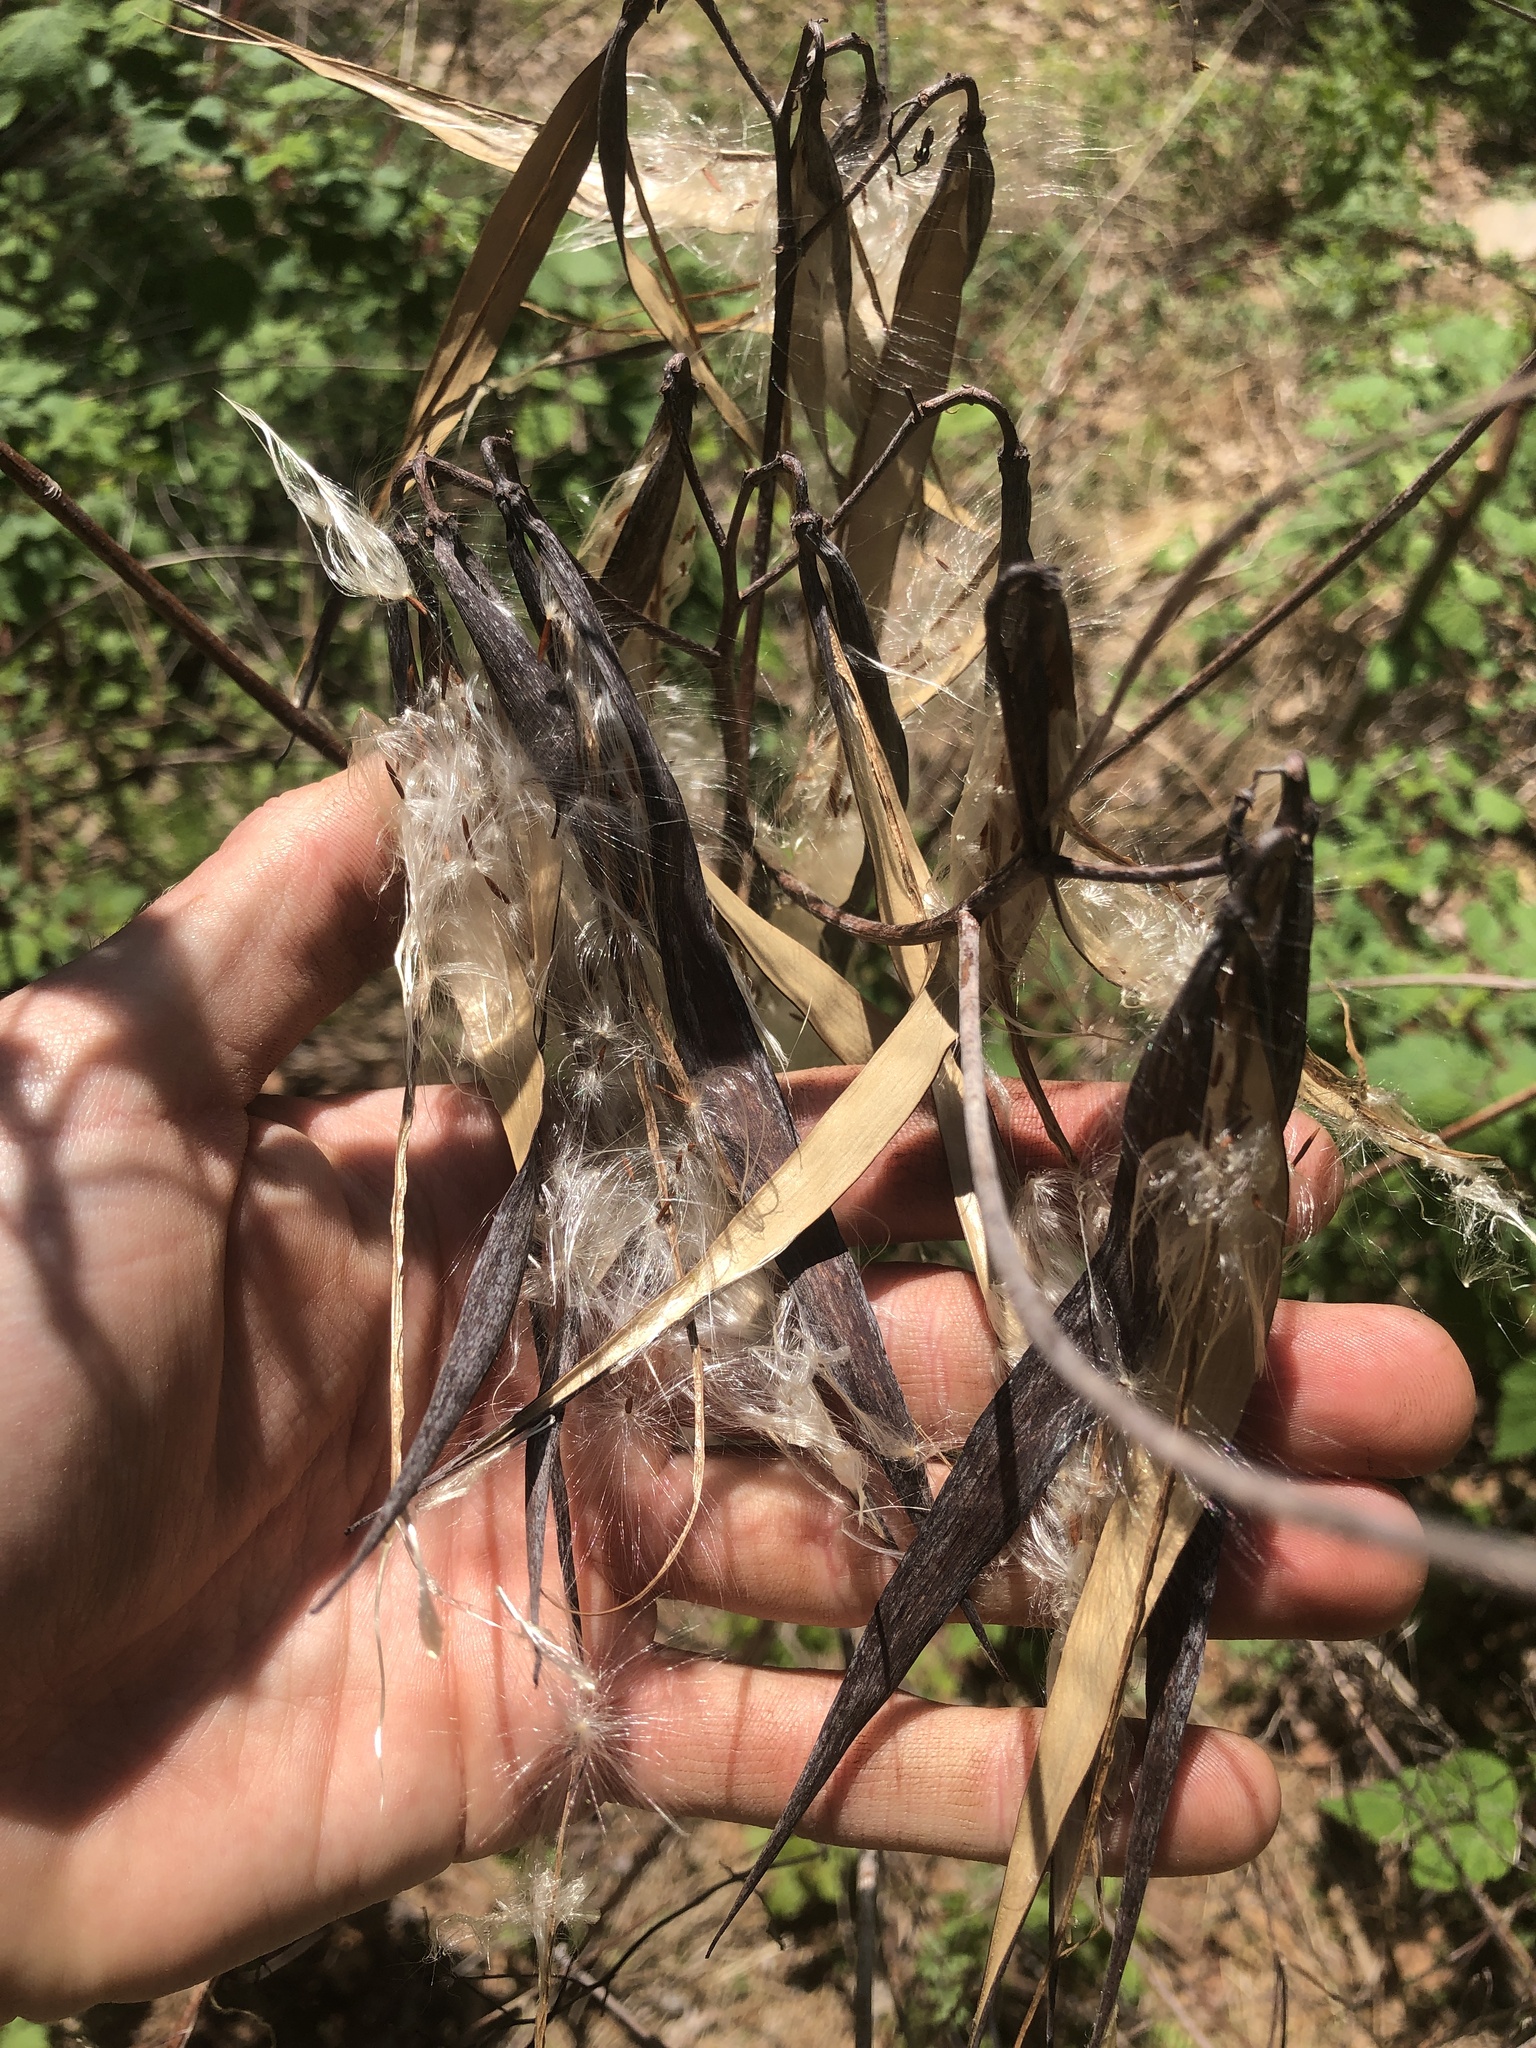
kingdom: Plantae
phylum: Tracheophyta
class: Magnoliopsida
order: Gentianales
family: Apocynaceae
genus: Apocynum
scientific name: Apocynum cannabinum
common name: Hemp dogbane
